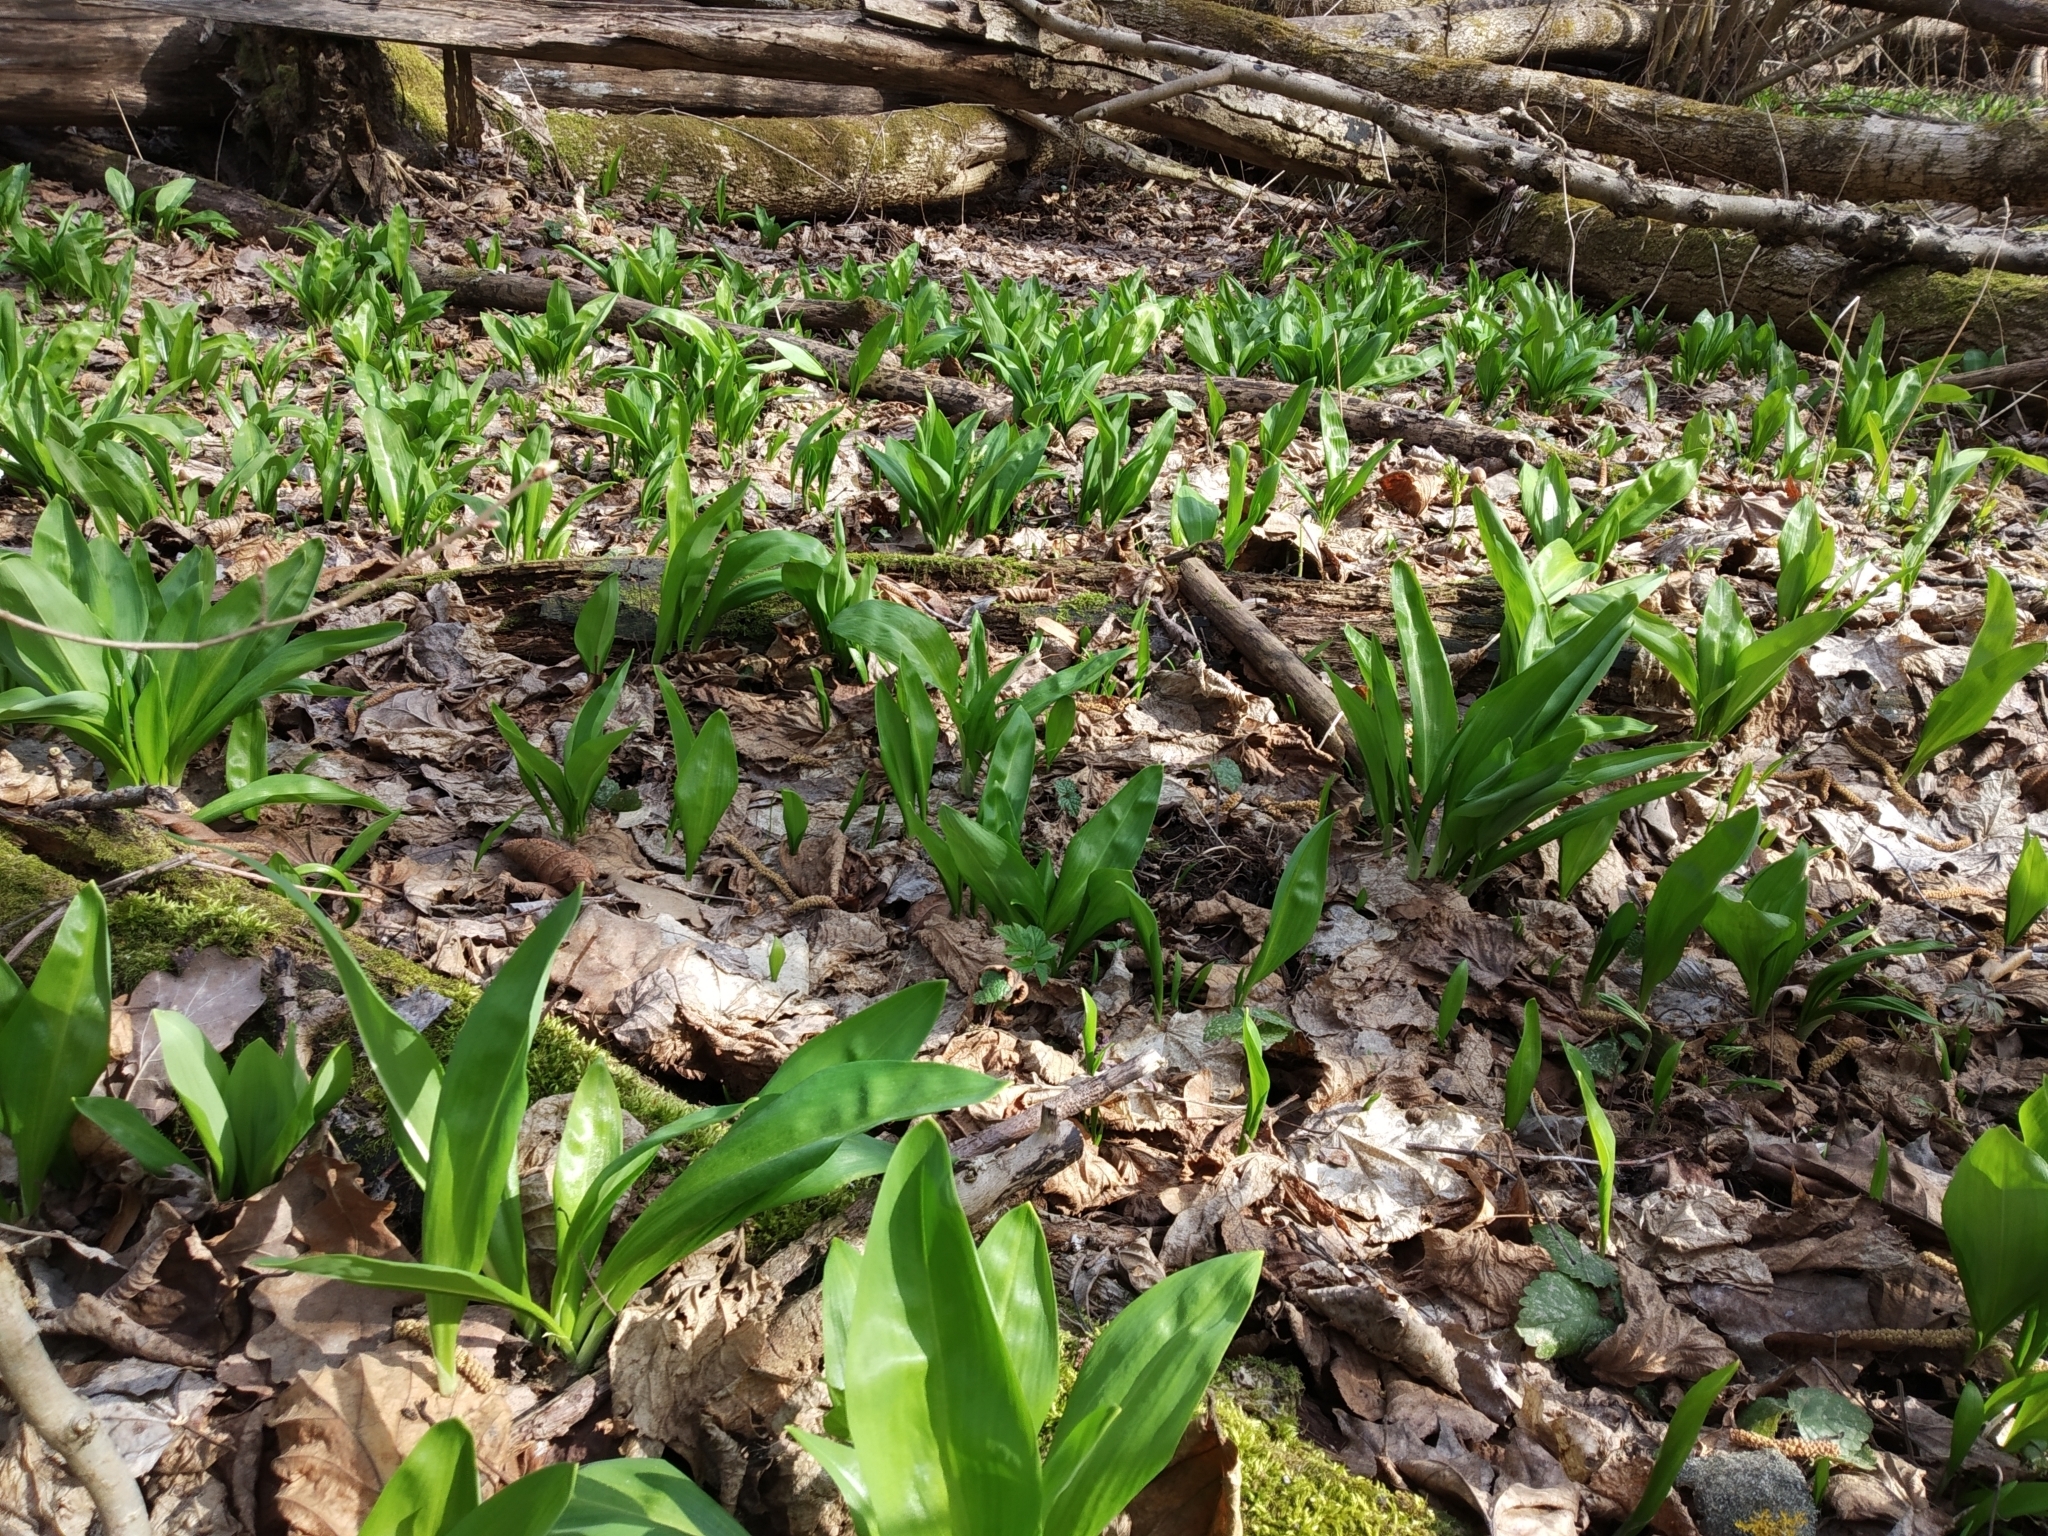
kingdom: Plantae
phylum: Tracheophyta
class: Liliopsida
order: Asparagales
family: Amaryllidaceae
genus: Allium
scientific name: Allium ursinum
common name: Ramsons
